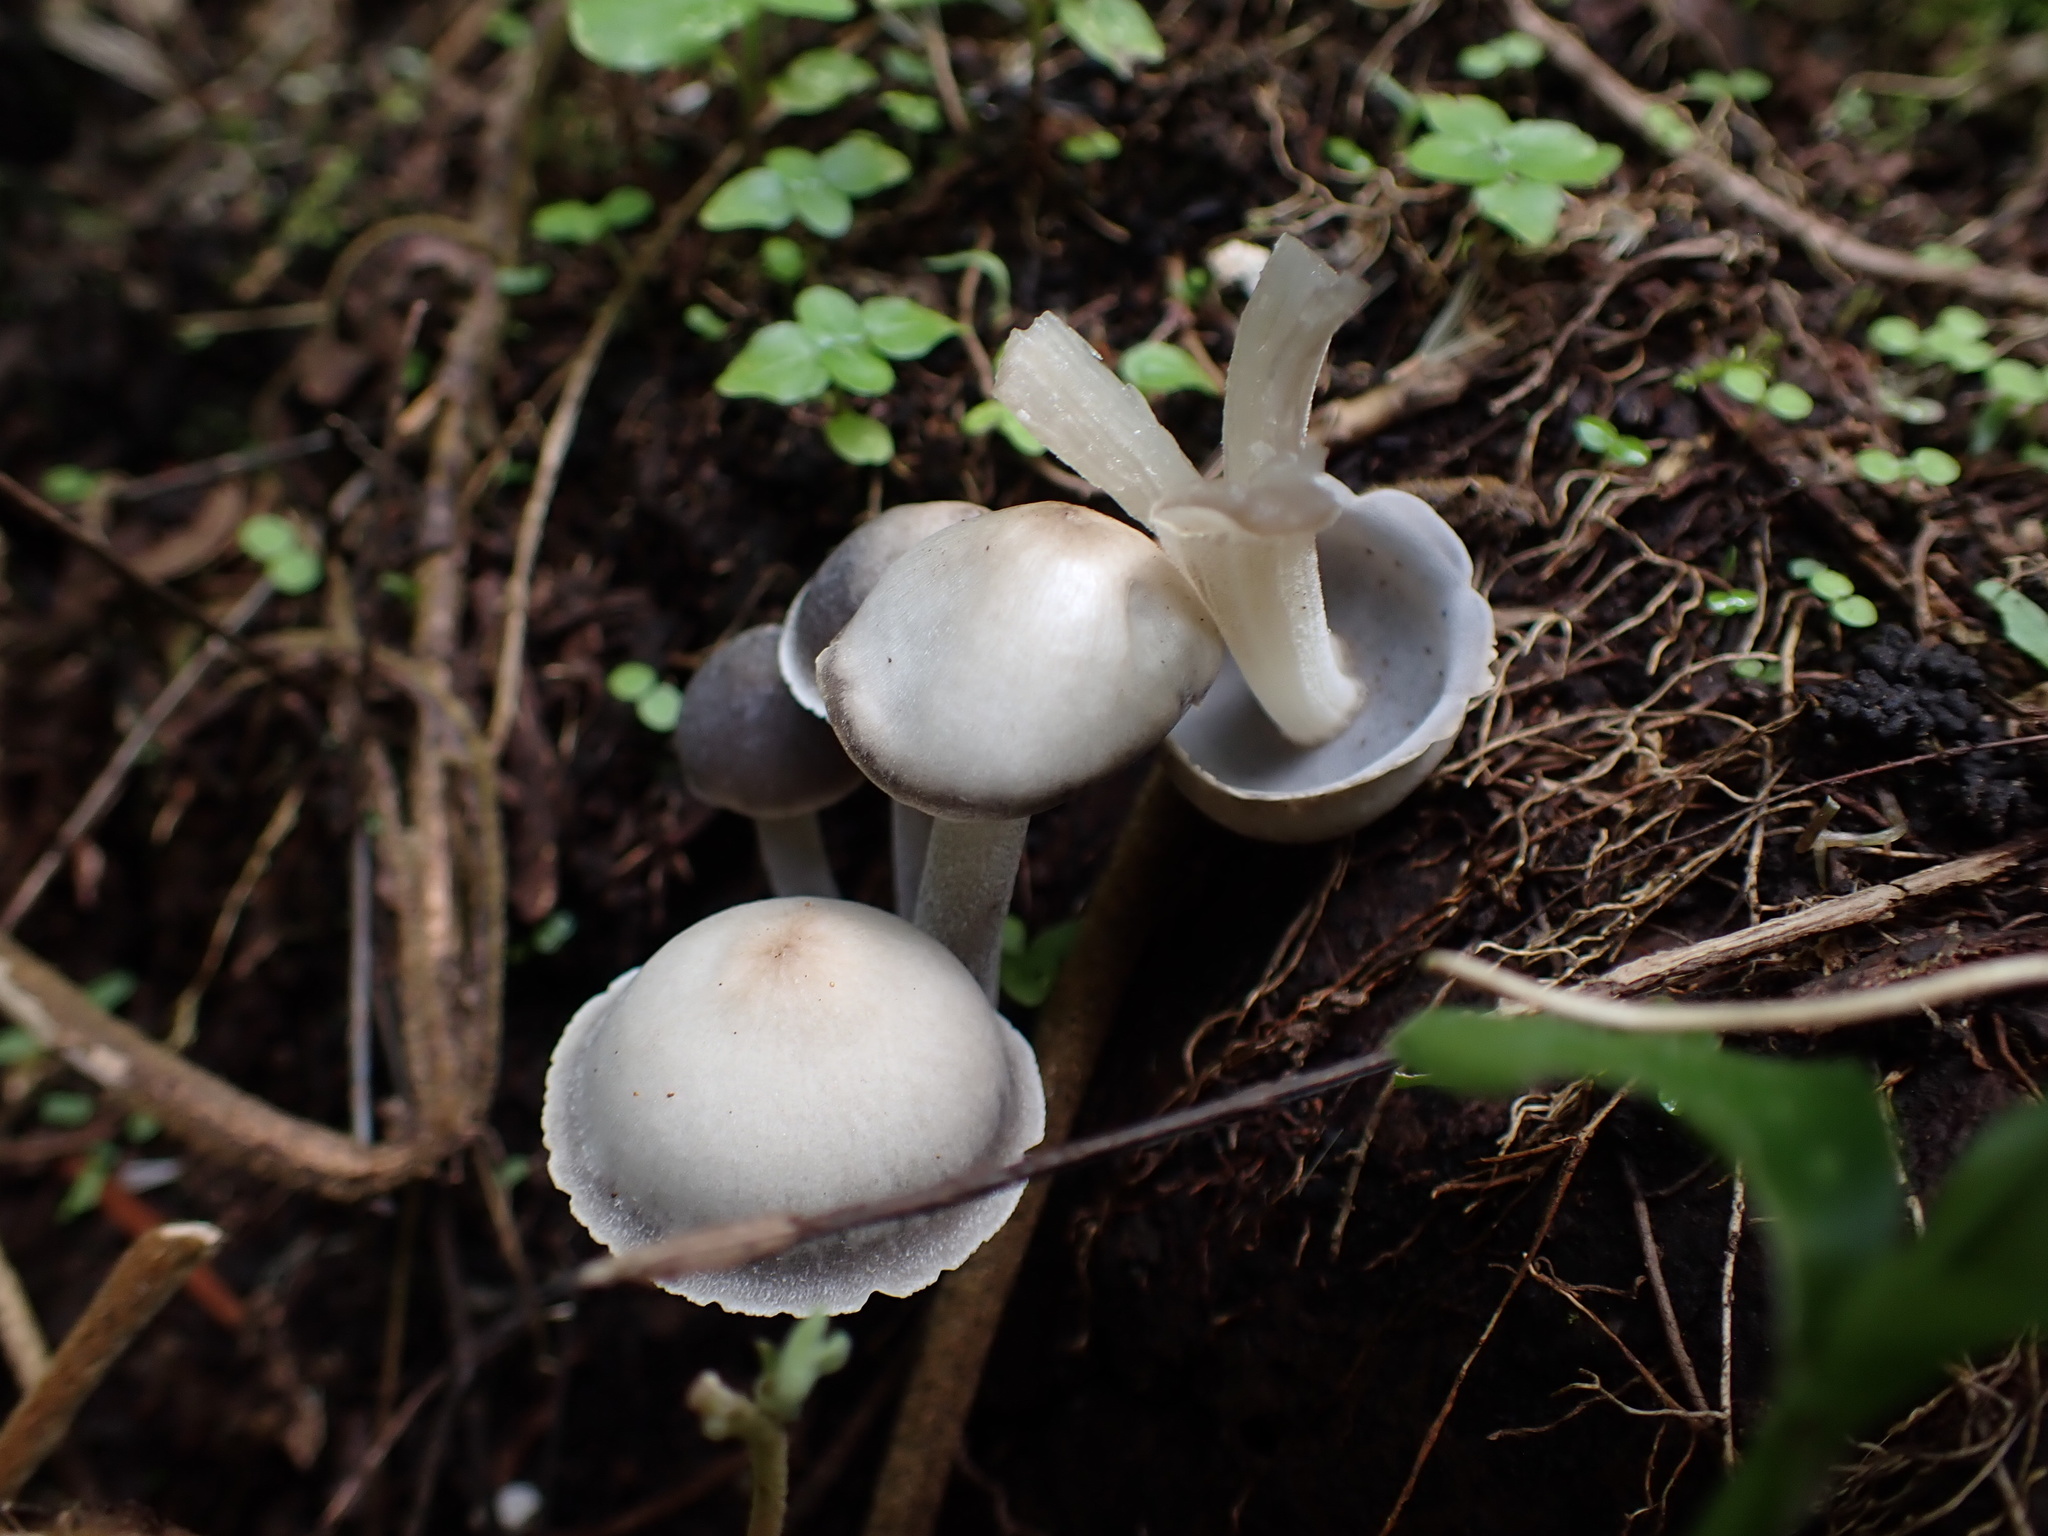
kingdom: Fungi
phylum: Basidiomycota
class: Agaricomycetes
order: Agaricales
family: Mycenaceae
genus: Filoboletus
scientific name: Filoboletus gracilis
